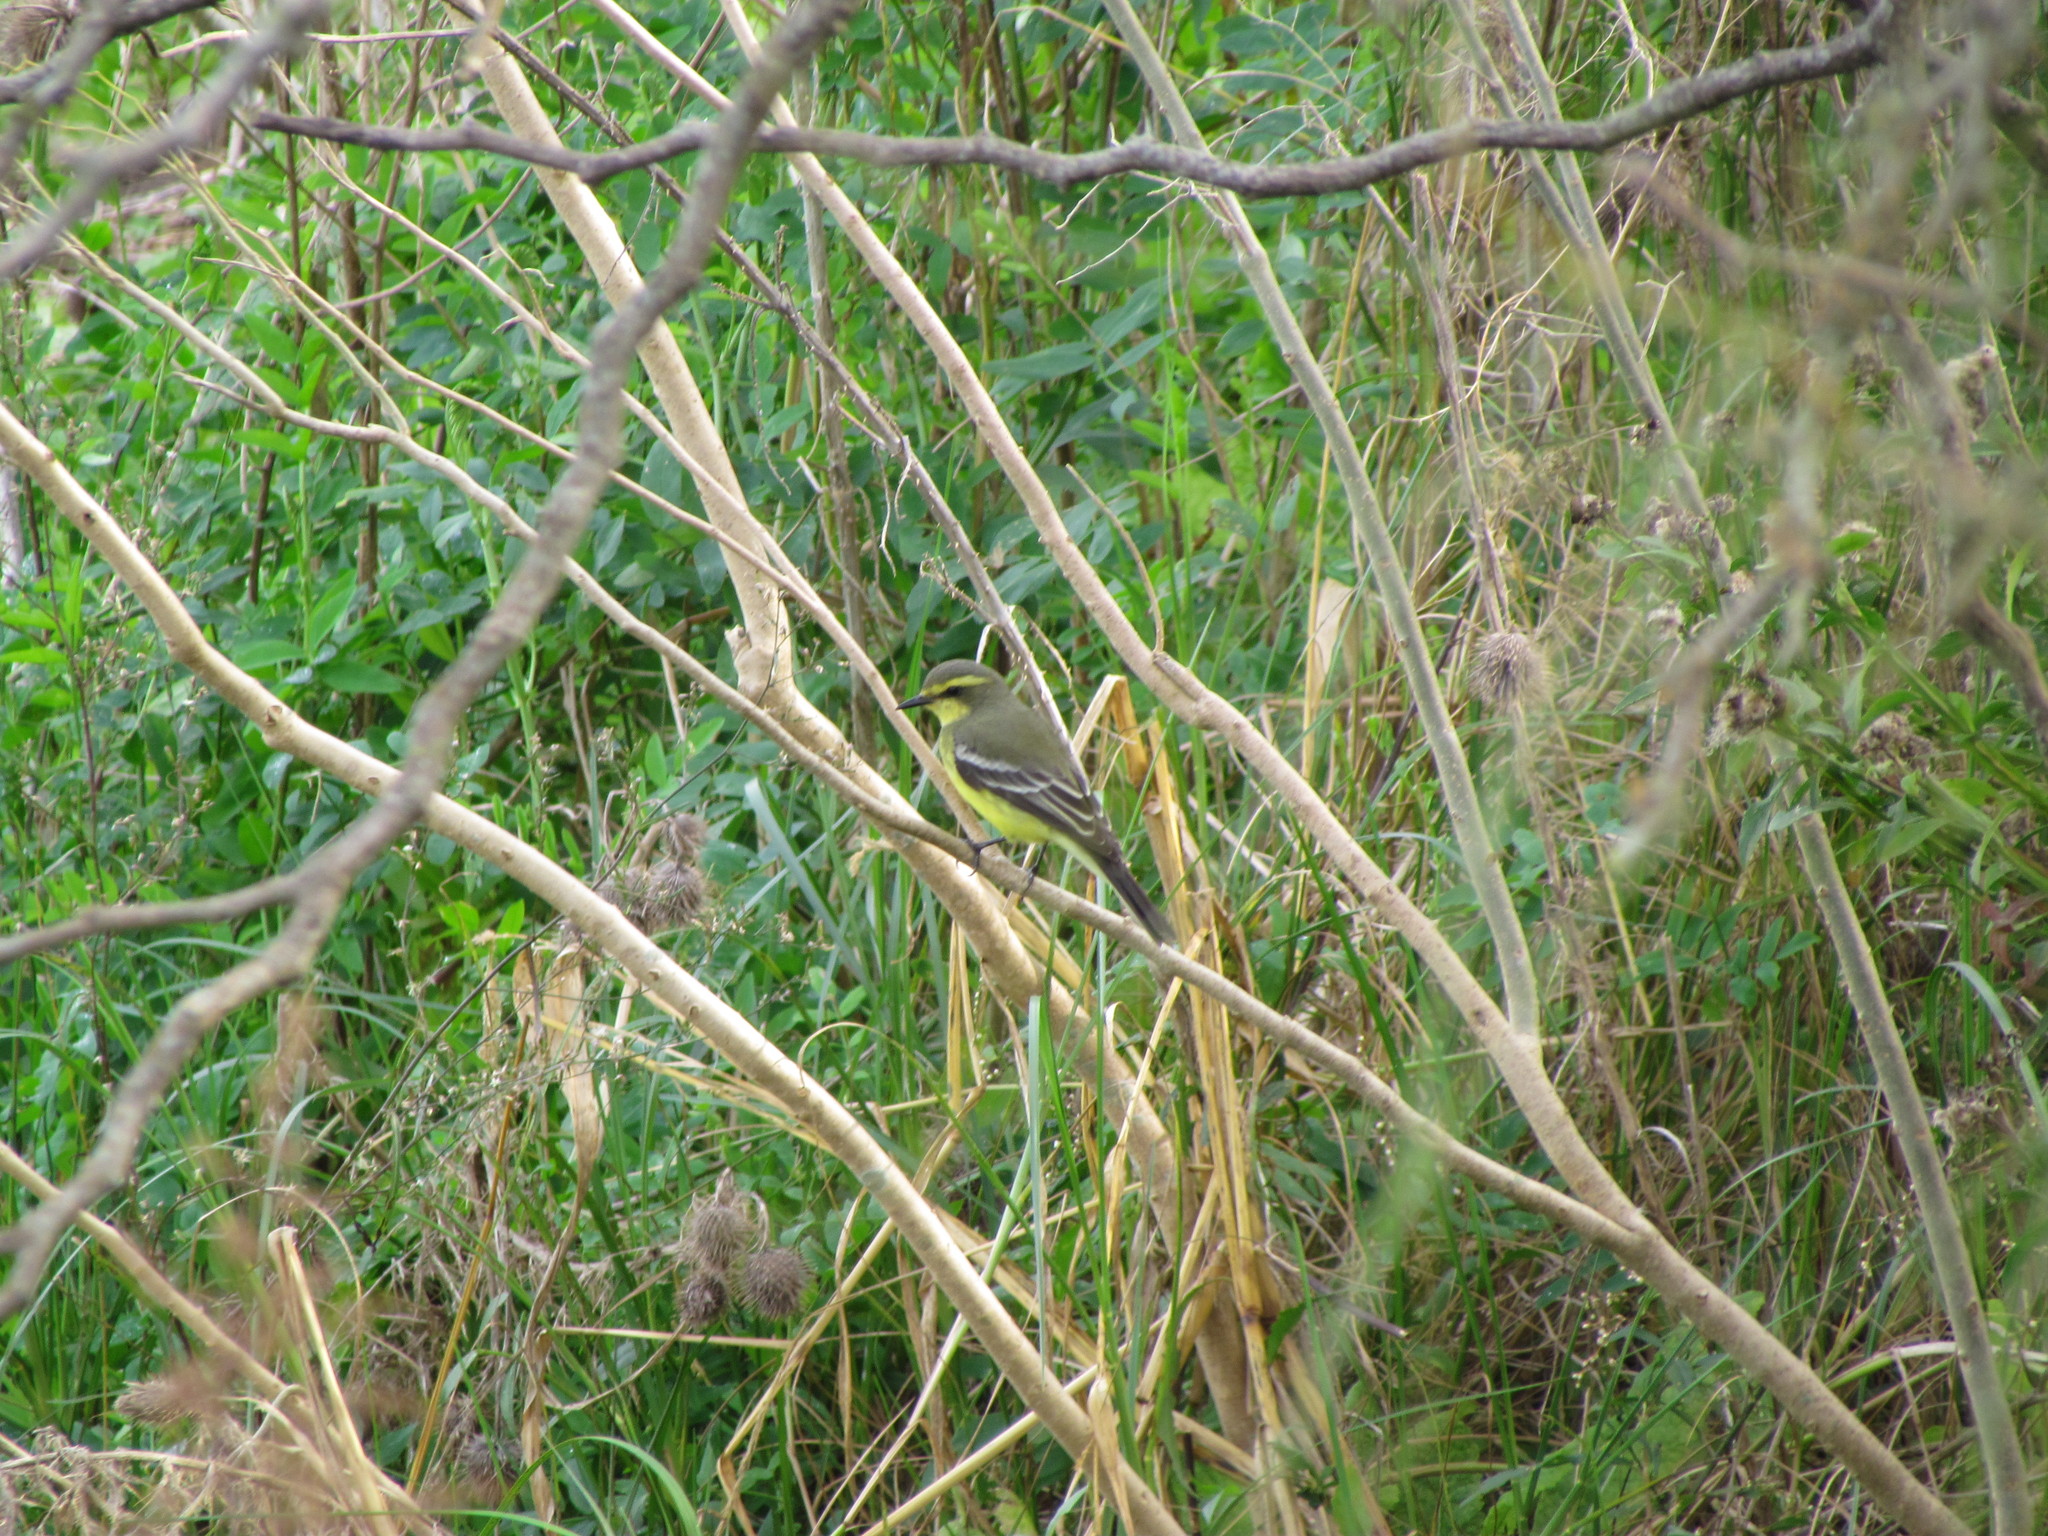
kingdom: Animalia
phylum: Chordata
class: Aves
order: Passeriformes
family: Tyrannidae
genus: Satrapa
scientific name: Satrapa icterophrys
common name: Yellow-browed tyrant
